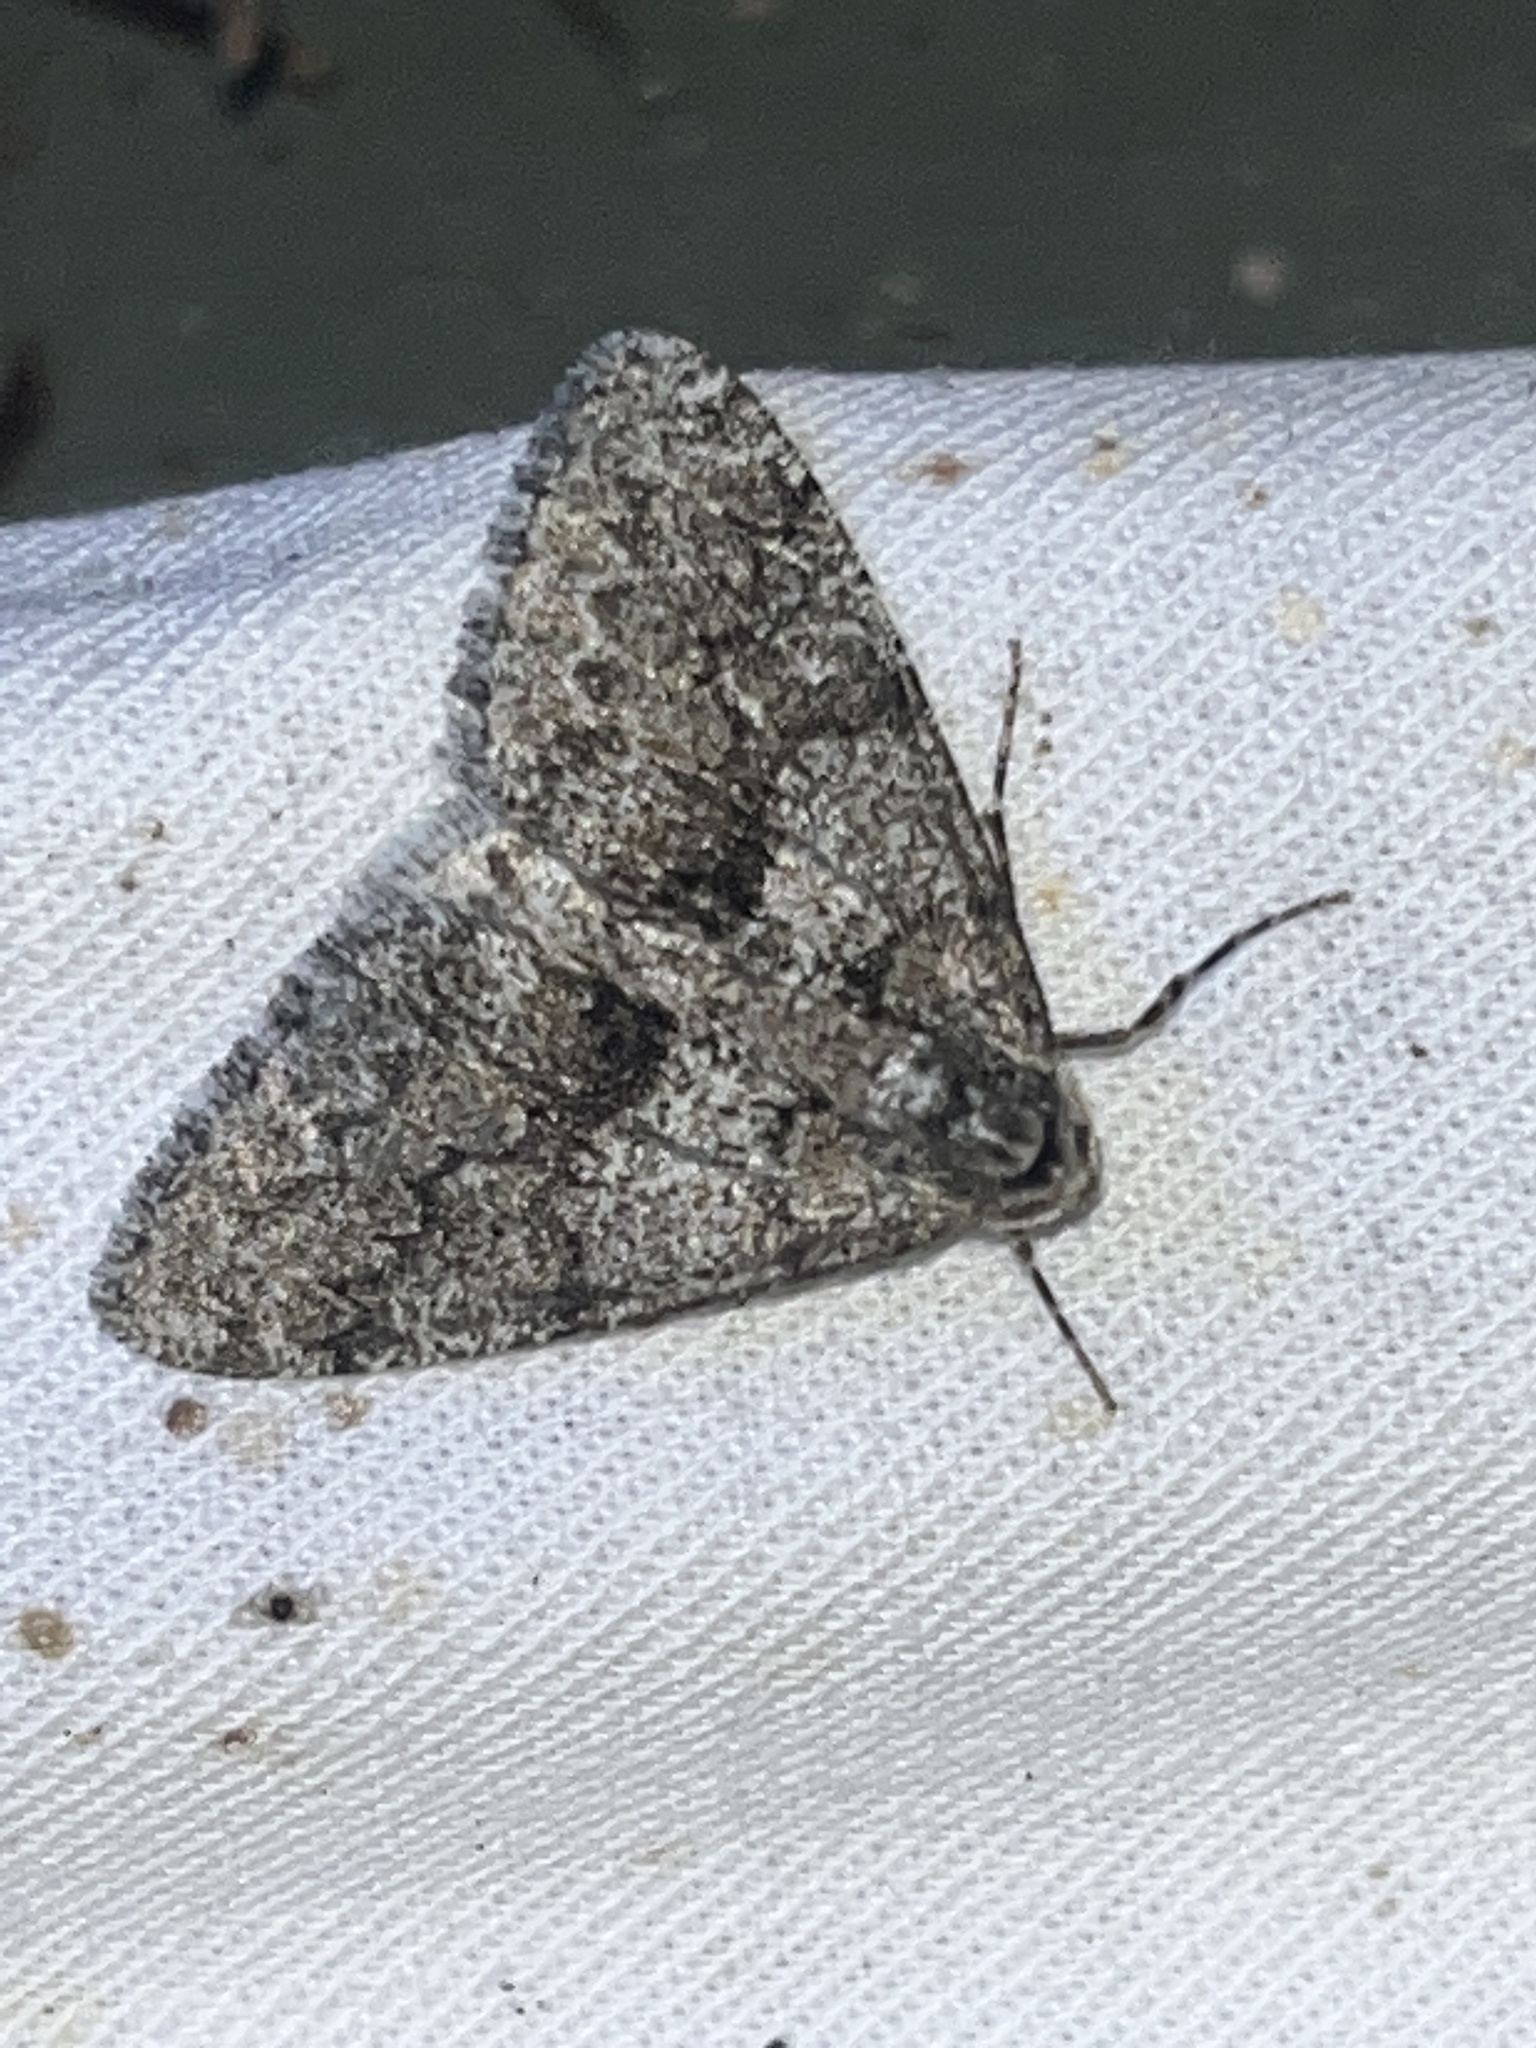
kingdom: Animalia
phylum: Arthropoda
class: Insecta
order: Lepidoptera
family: Geometridae
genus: Phigalia
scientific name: Phigalia denticulata
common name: Toothed phigalia
